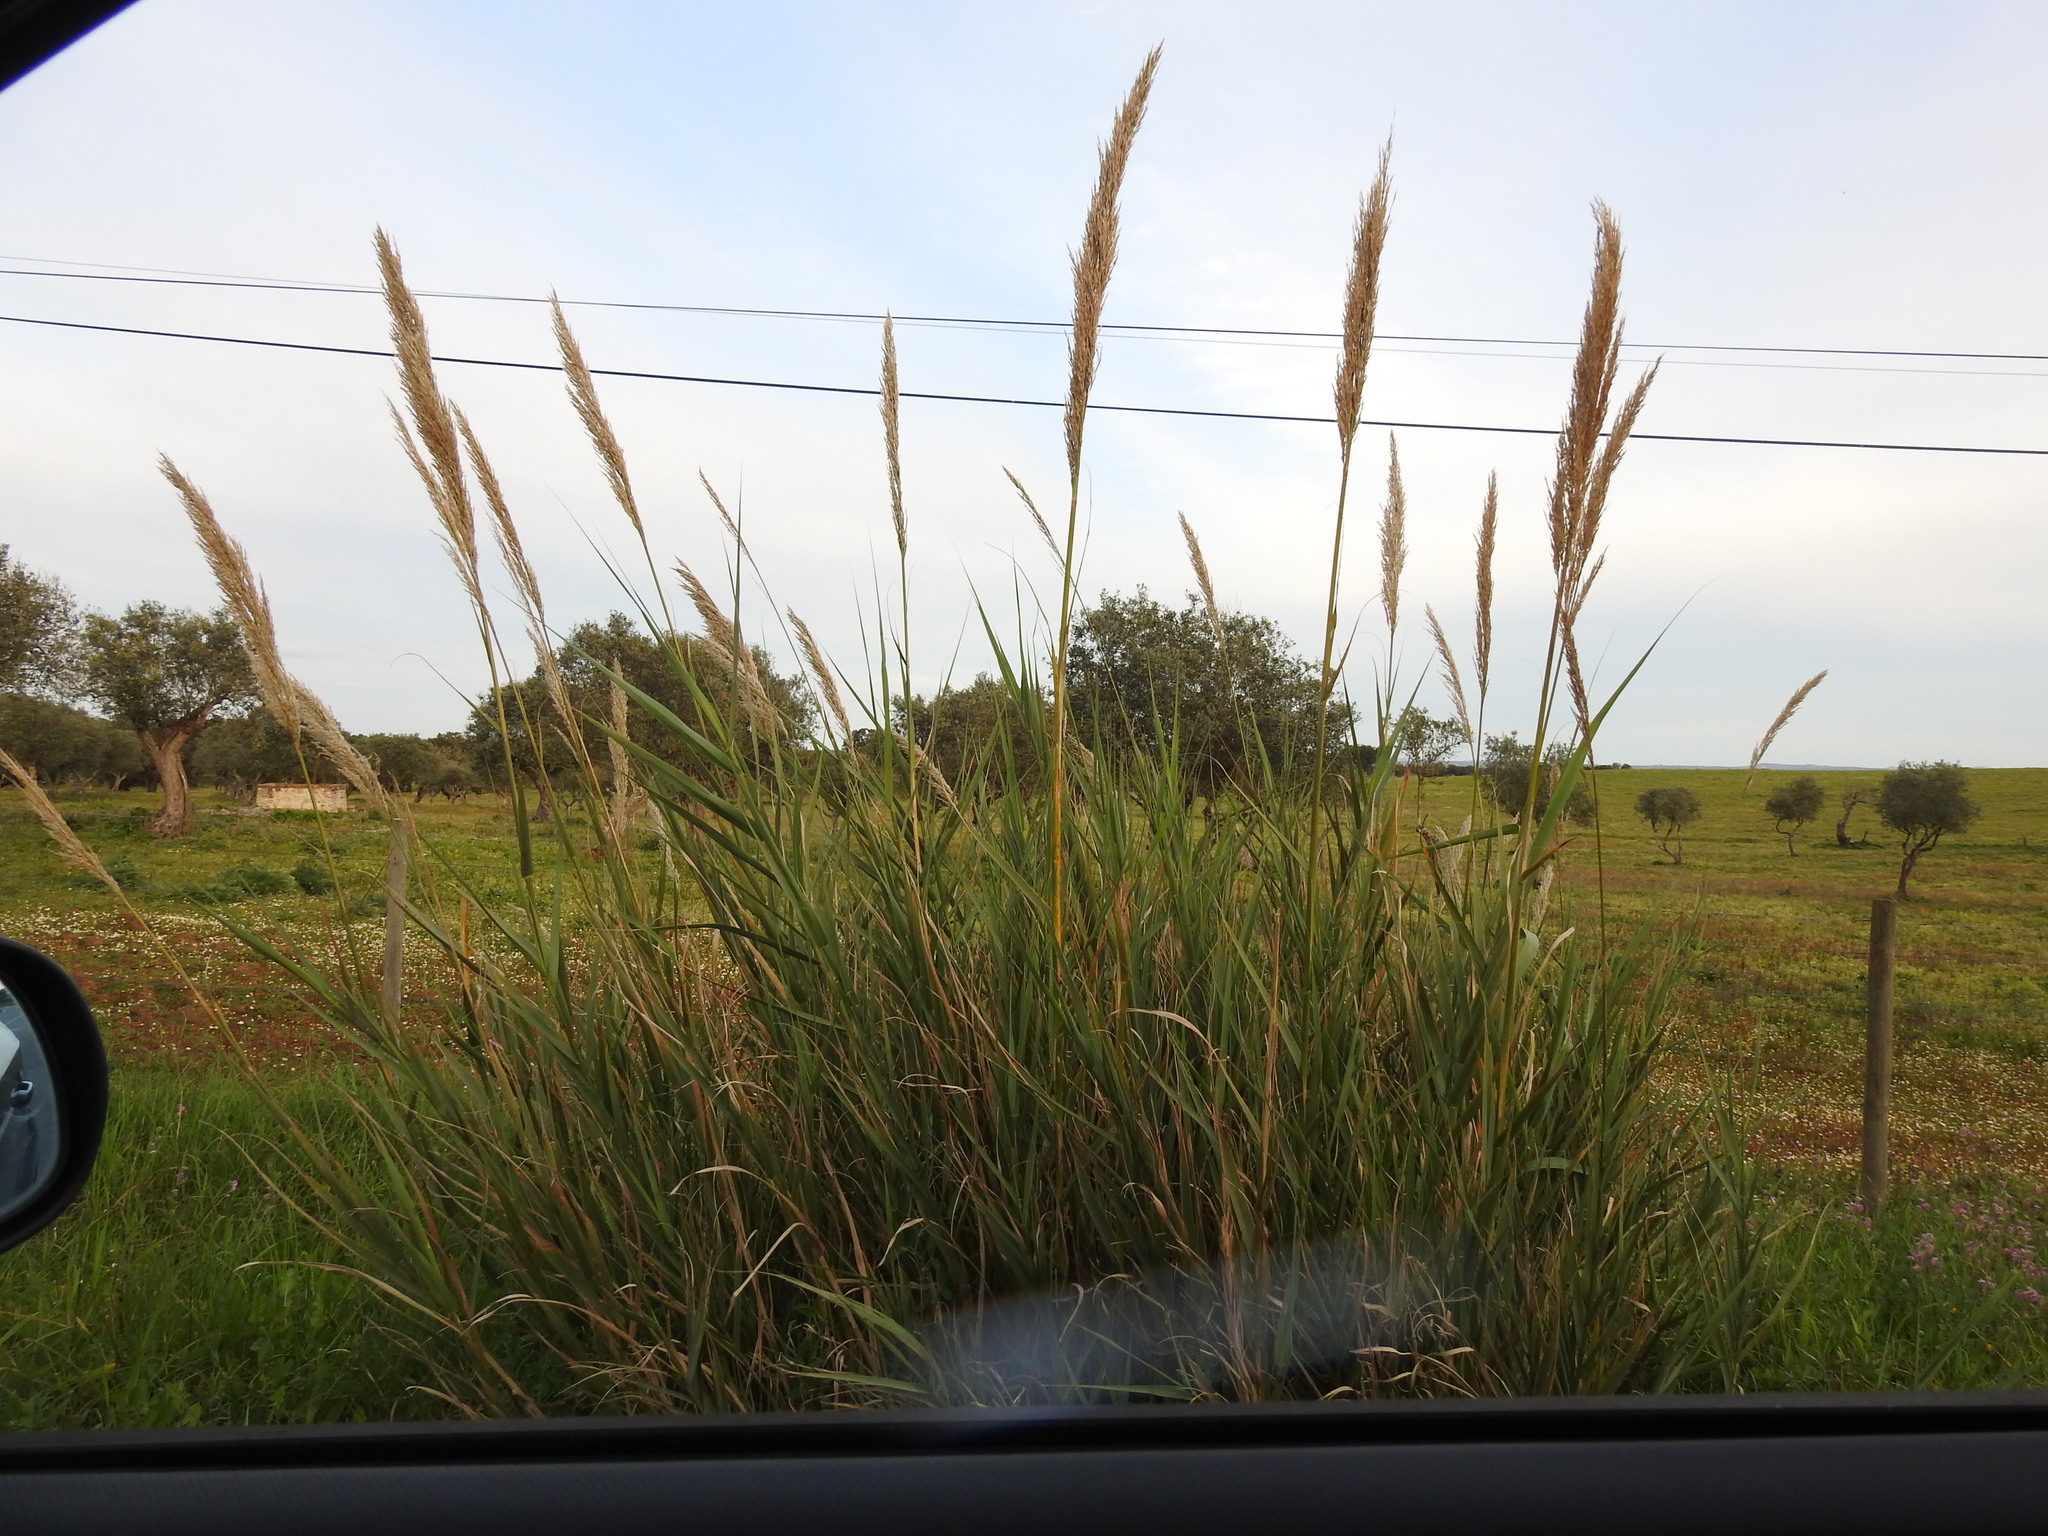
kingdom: Plantae
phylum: Tracheophyta
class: Liliopsida
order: Poales
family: Poaceae
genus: Arundo
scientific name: Arundo micrantha
